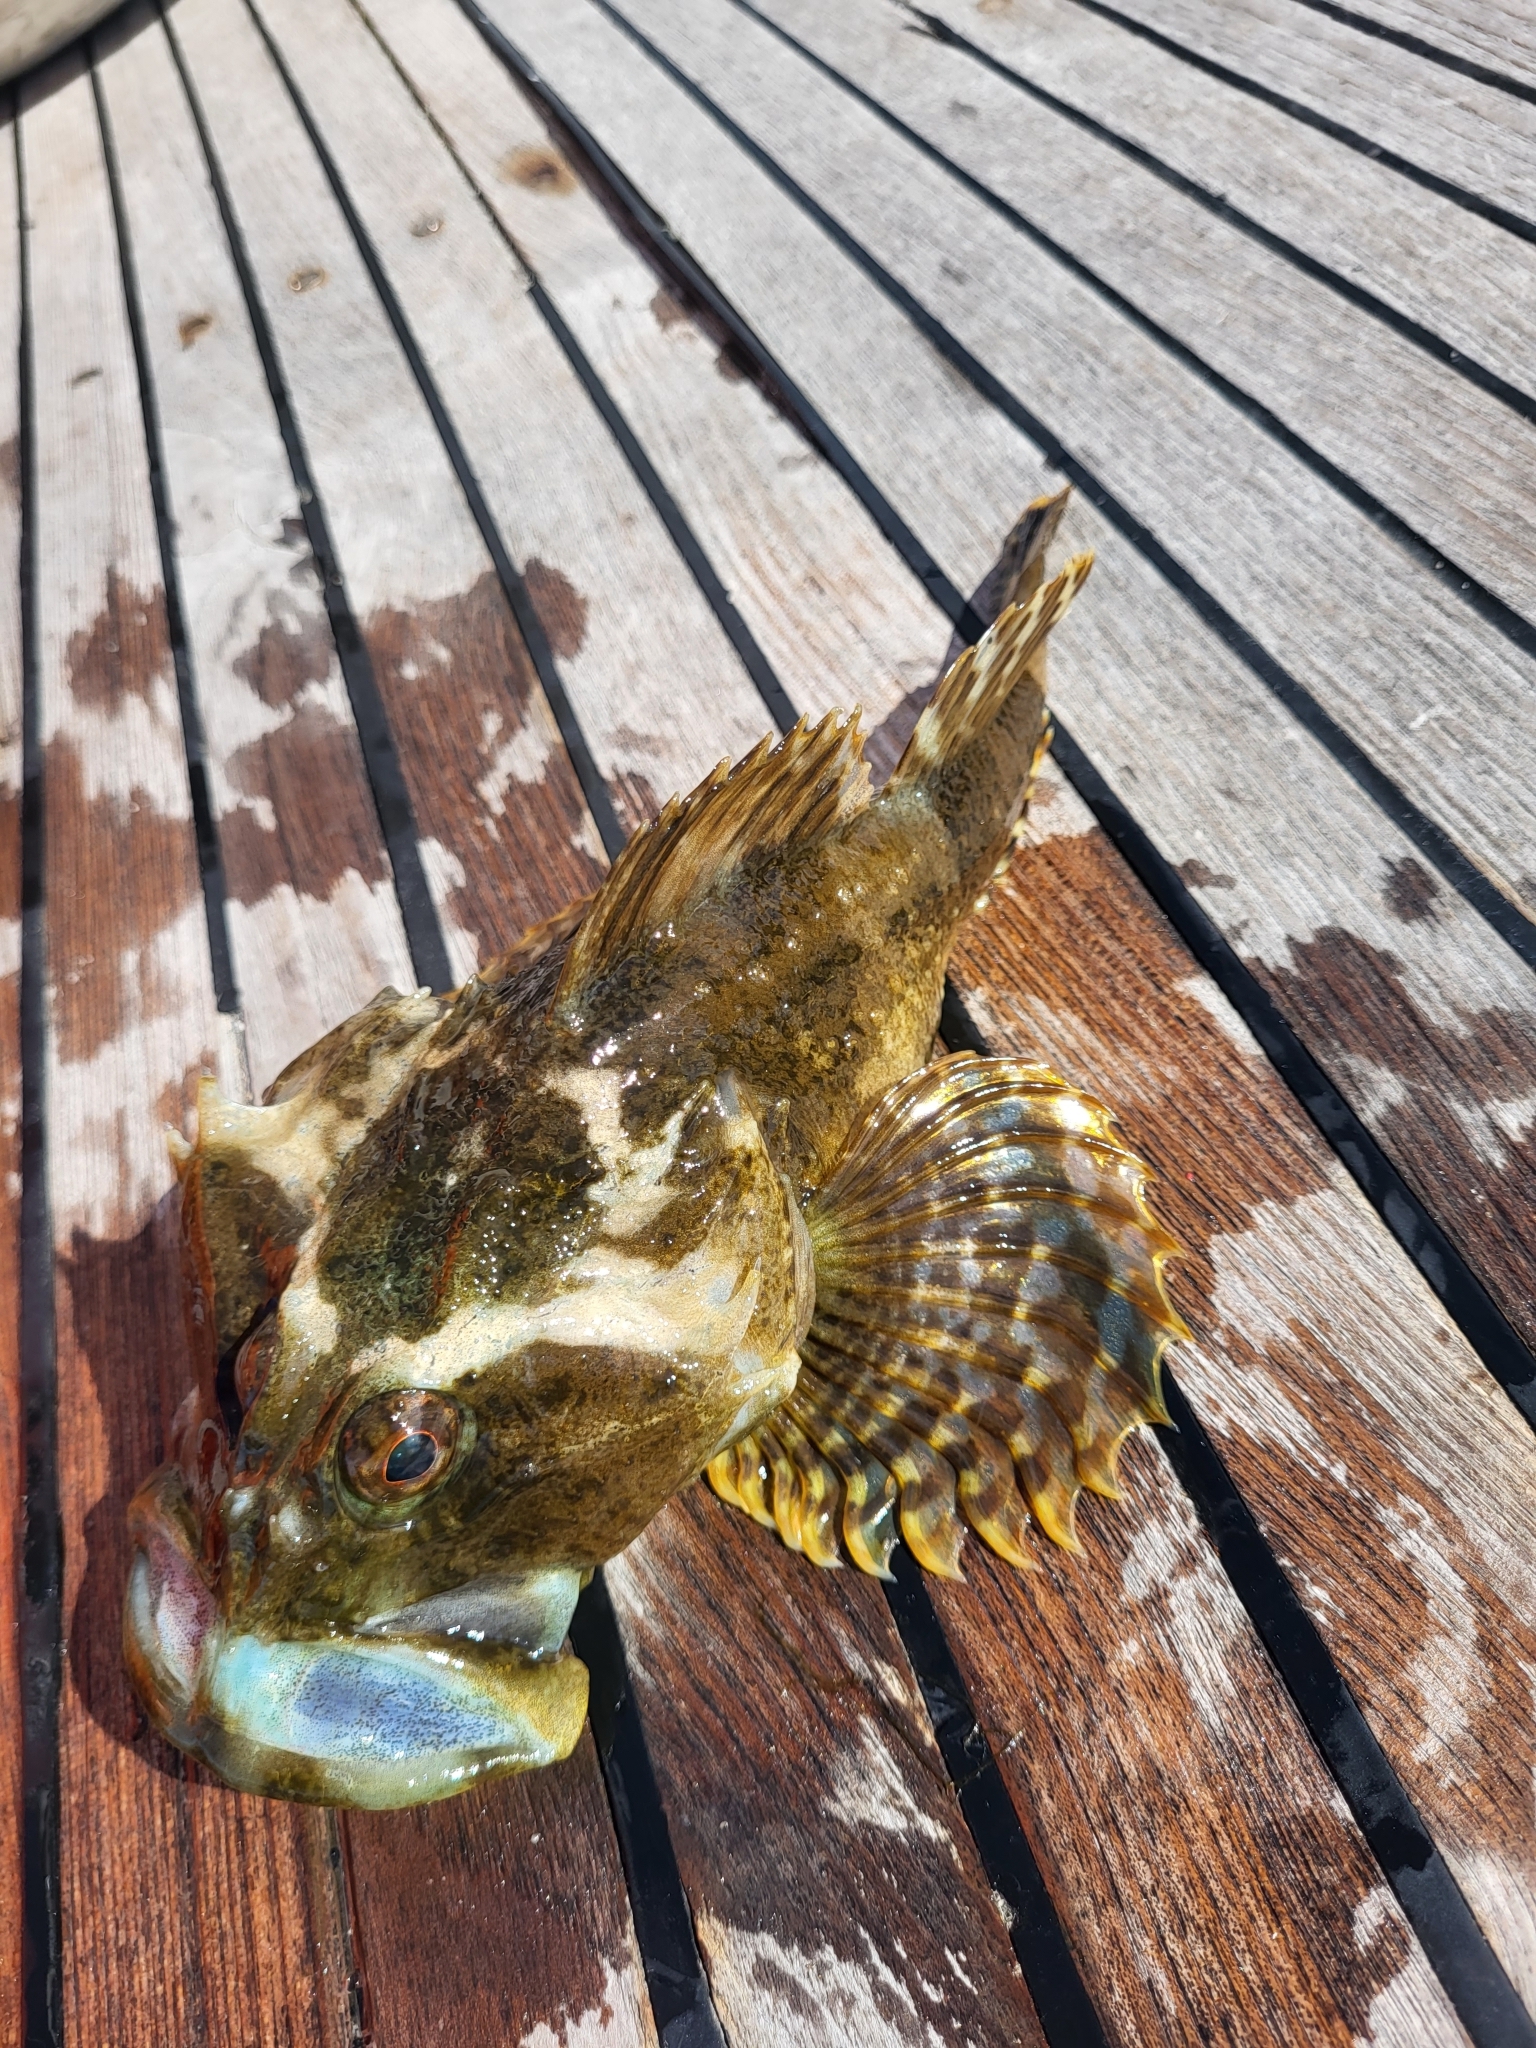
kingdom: Animalia
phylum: Chordata
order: Scorpaeniformes
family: Cottidae
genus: Myoxocephalus
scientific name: Myoxocephalus scorpius
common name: Shorthorn sculpin
